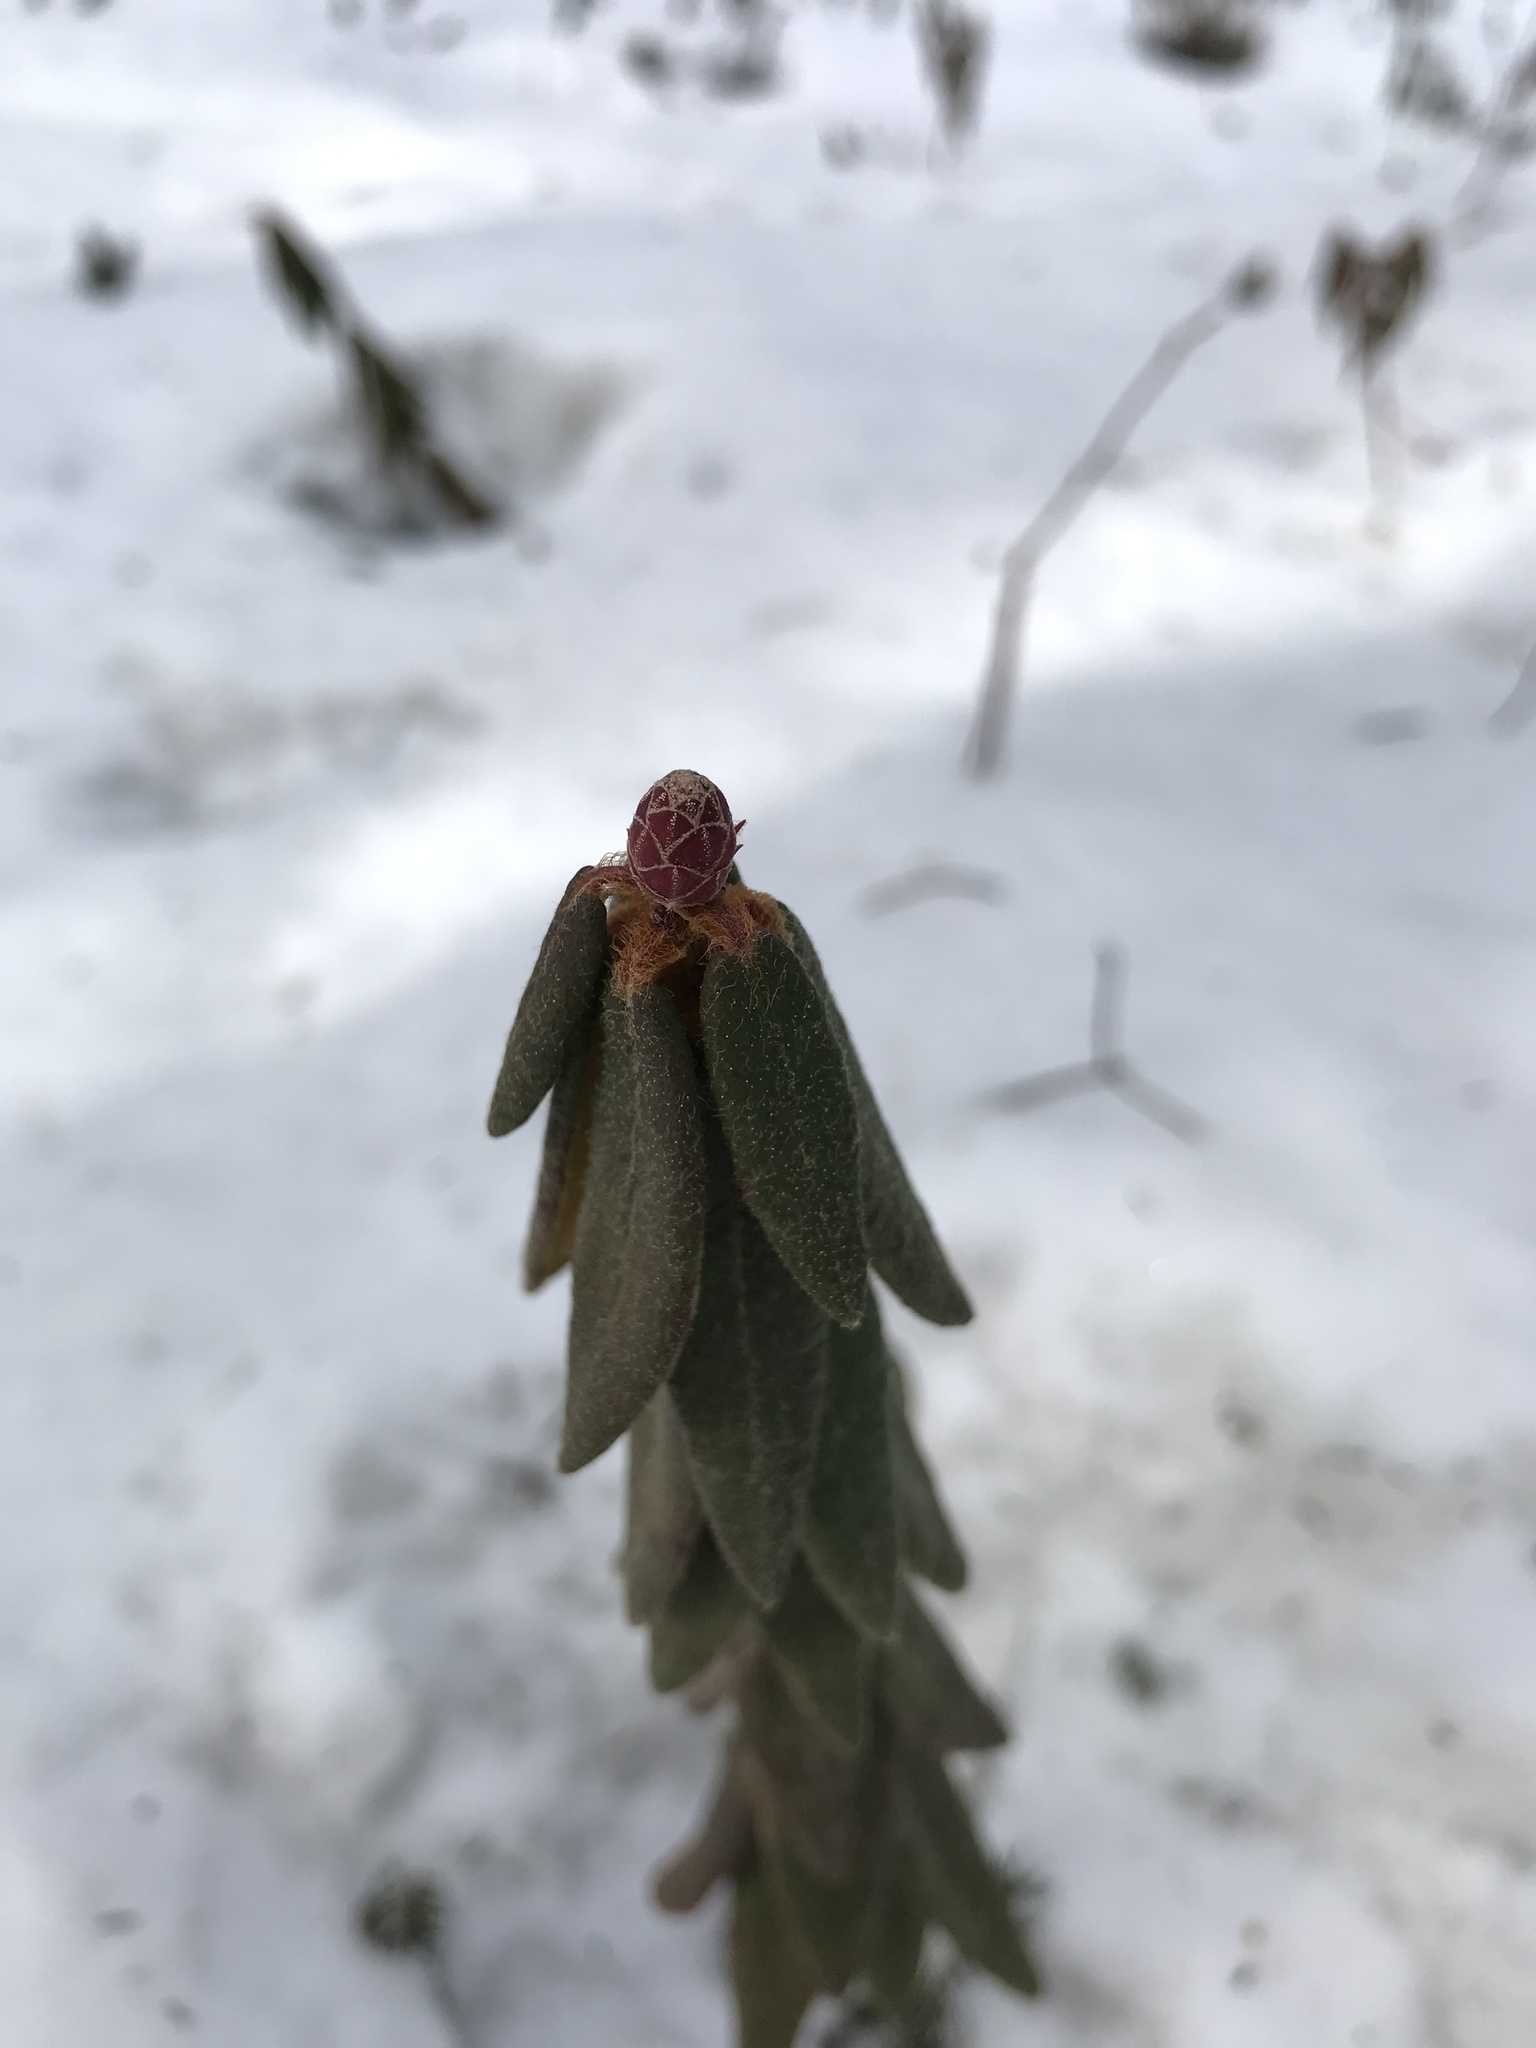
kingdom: Plantae
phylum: Tracheophyta
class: Magnoliopsida
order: Ericales
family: Ericaceae
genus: Rhododendron
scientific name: Rhododendron groenlandicum
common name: Bog labrador tea
